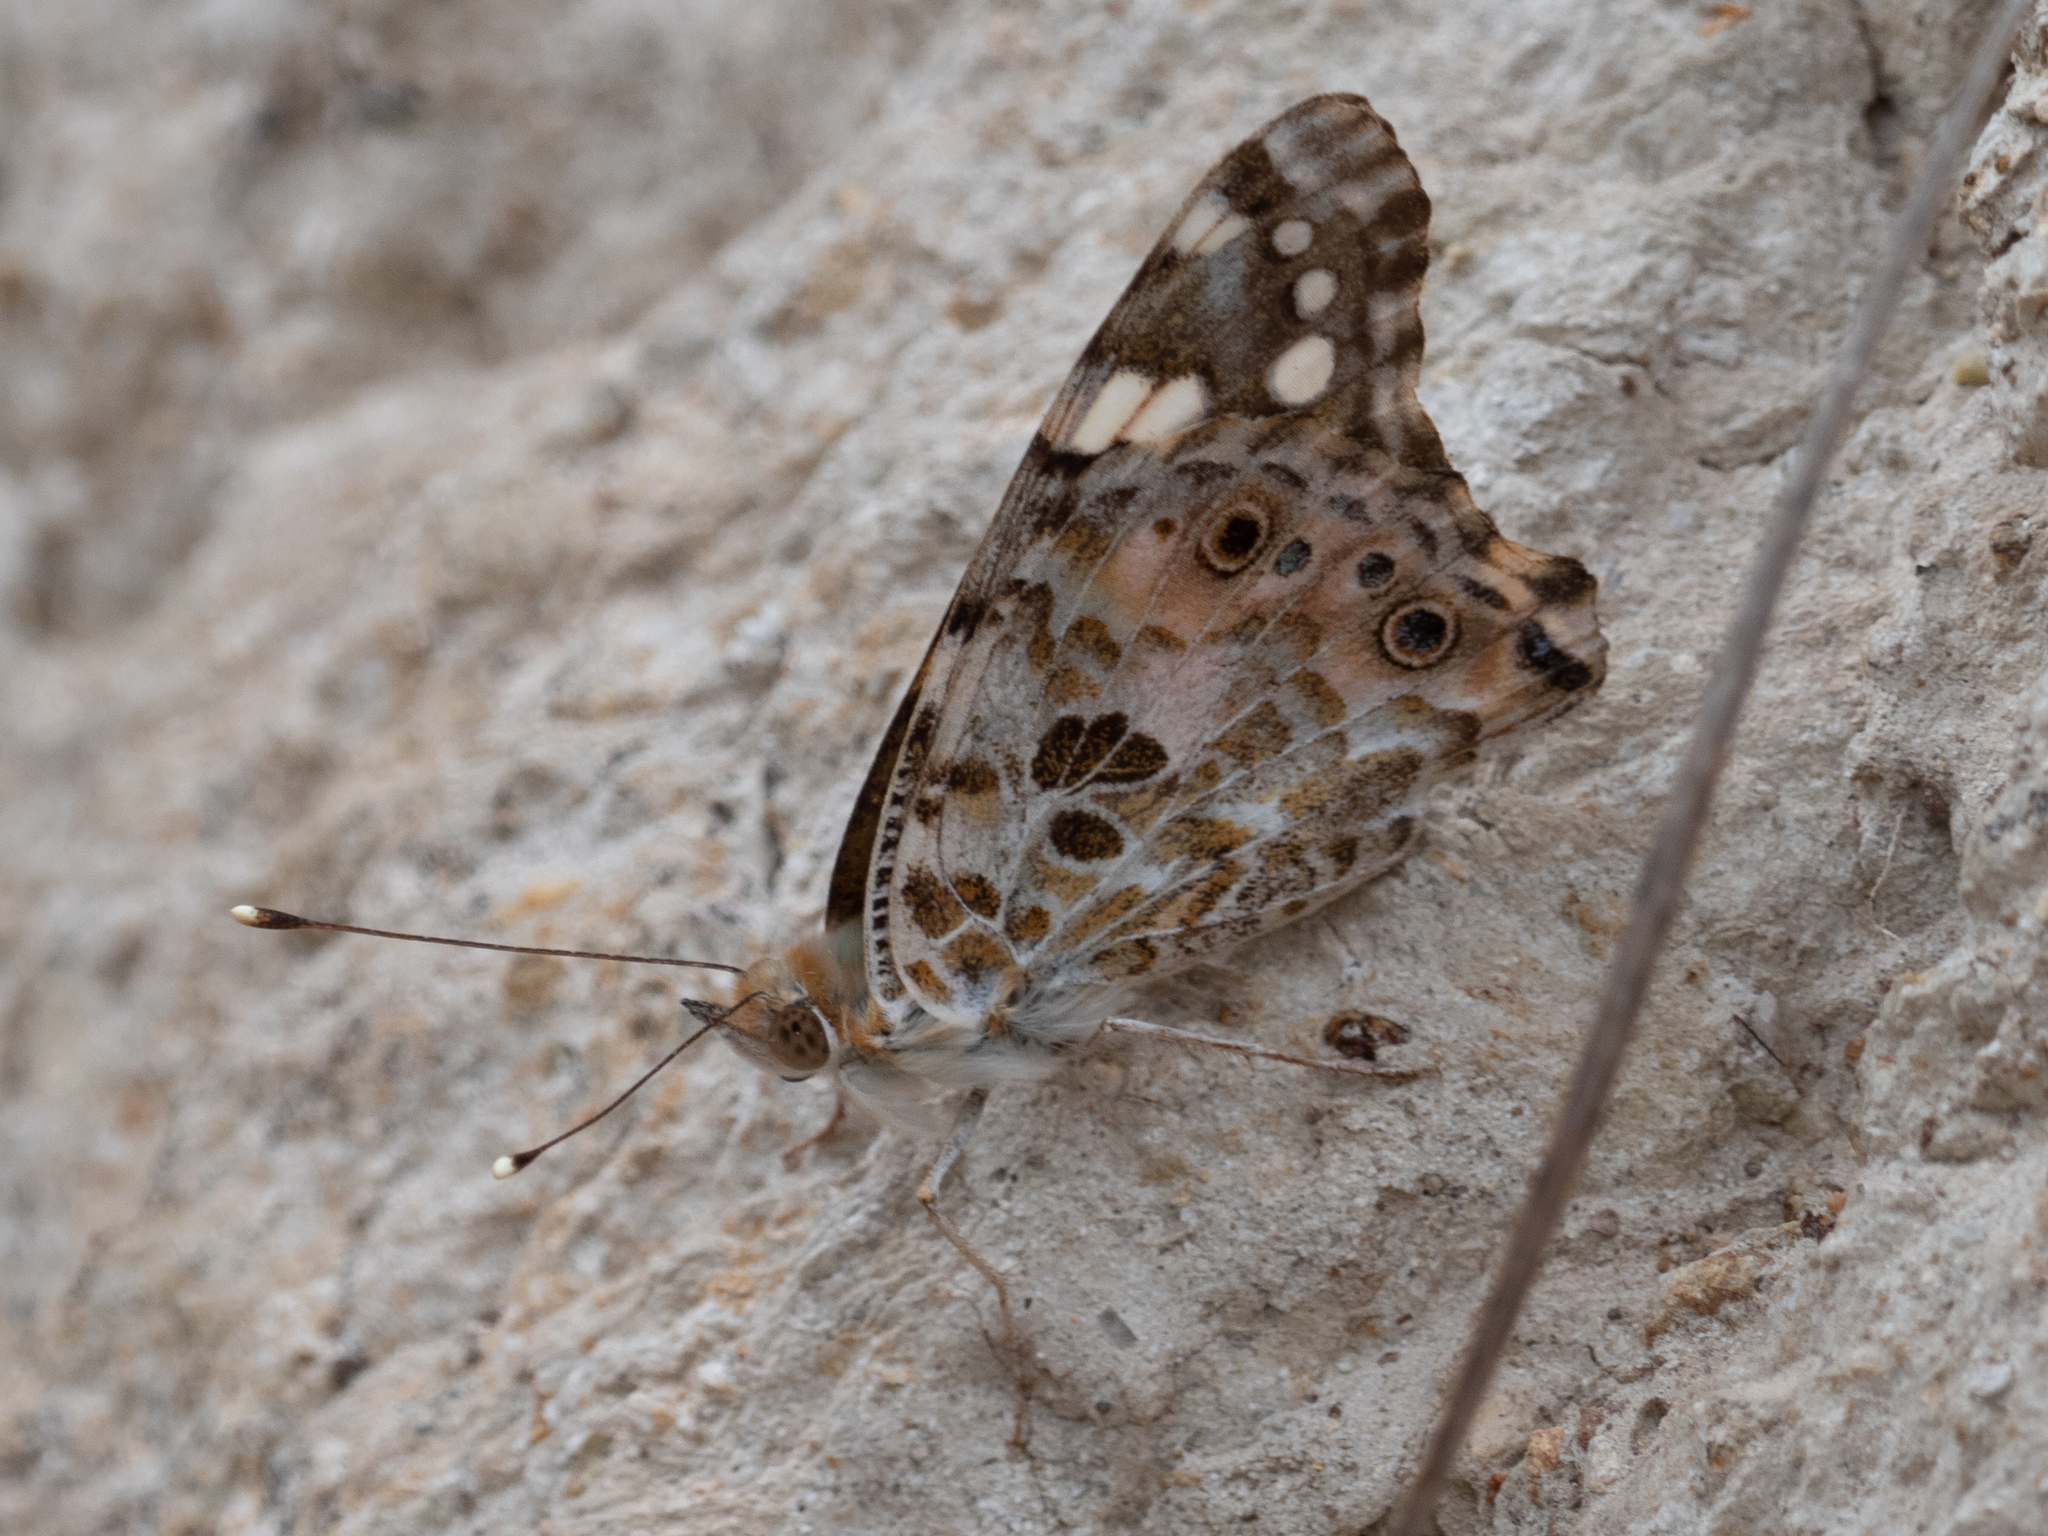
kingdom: Animalia
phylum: Arthropoda
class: Insecta
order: Lepidoptera
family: Nymphalidae
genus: Vanessa
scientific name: Vanessa cardui
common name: Painted lady
